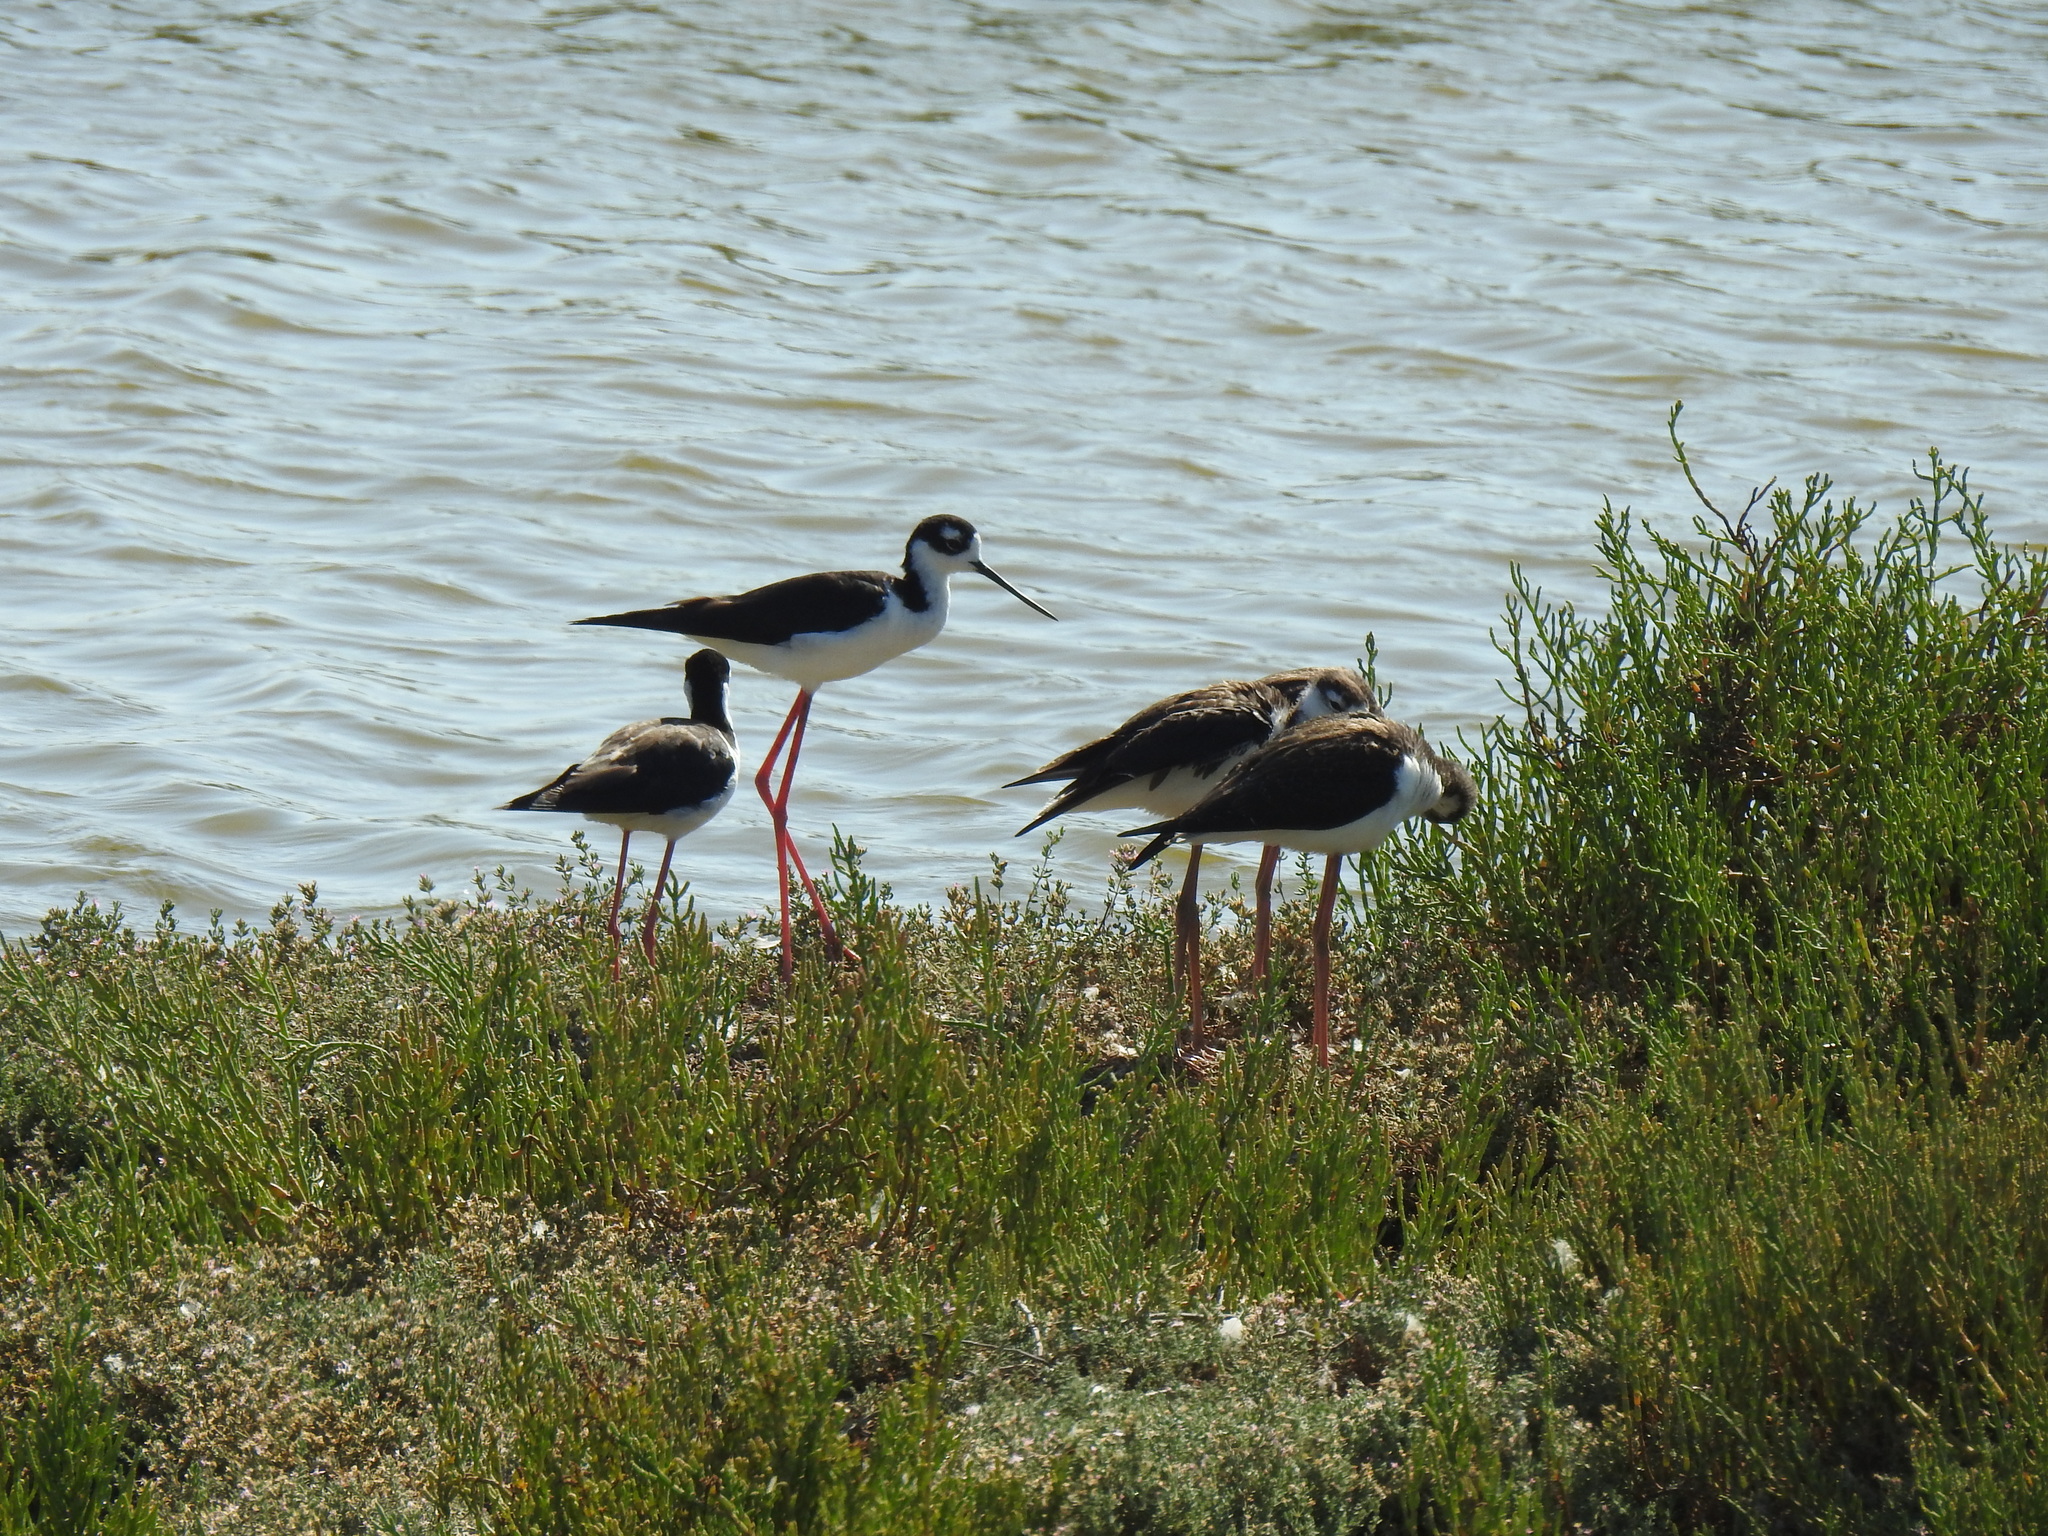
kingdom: Animalia
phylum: Chordata
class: Aves
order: Charadriiformes
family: Recurvirostridae
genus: Himantopus
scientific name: Himantopus mexicanus
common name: Black-necked stilt
